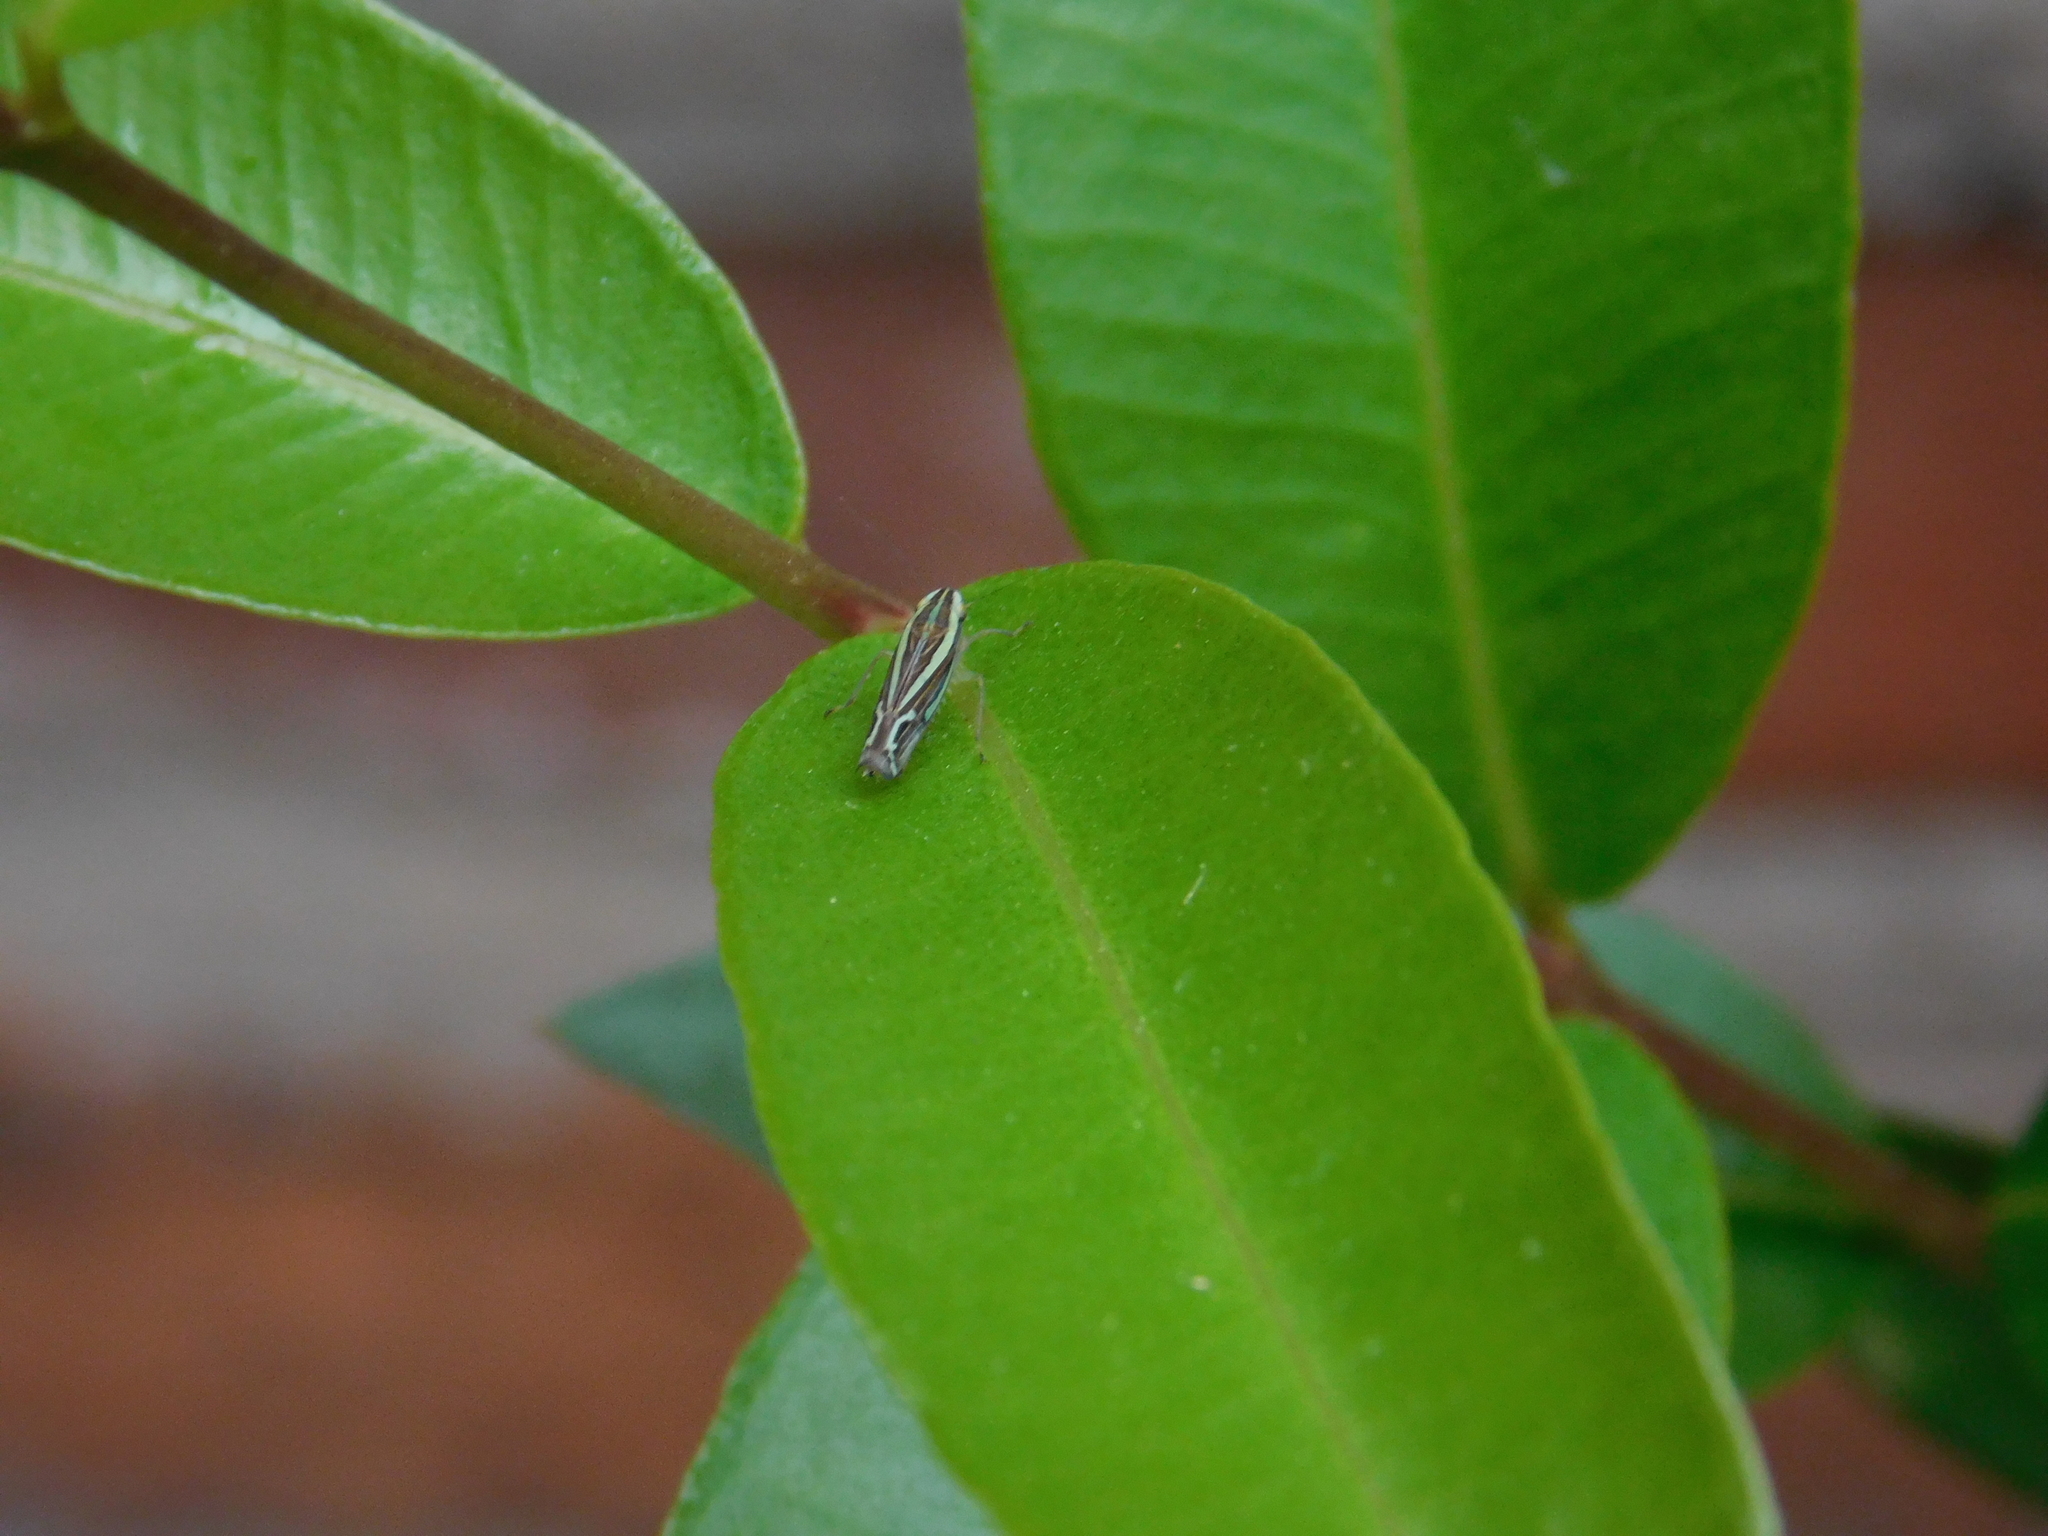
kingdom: Animalia
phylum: Arthropoda
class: Insecta
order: Hemiptera
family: Cicadellidae
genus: Sibovia
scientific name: Sibovia sagata
